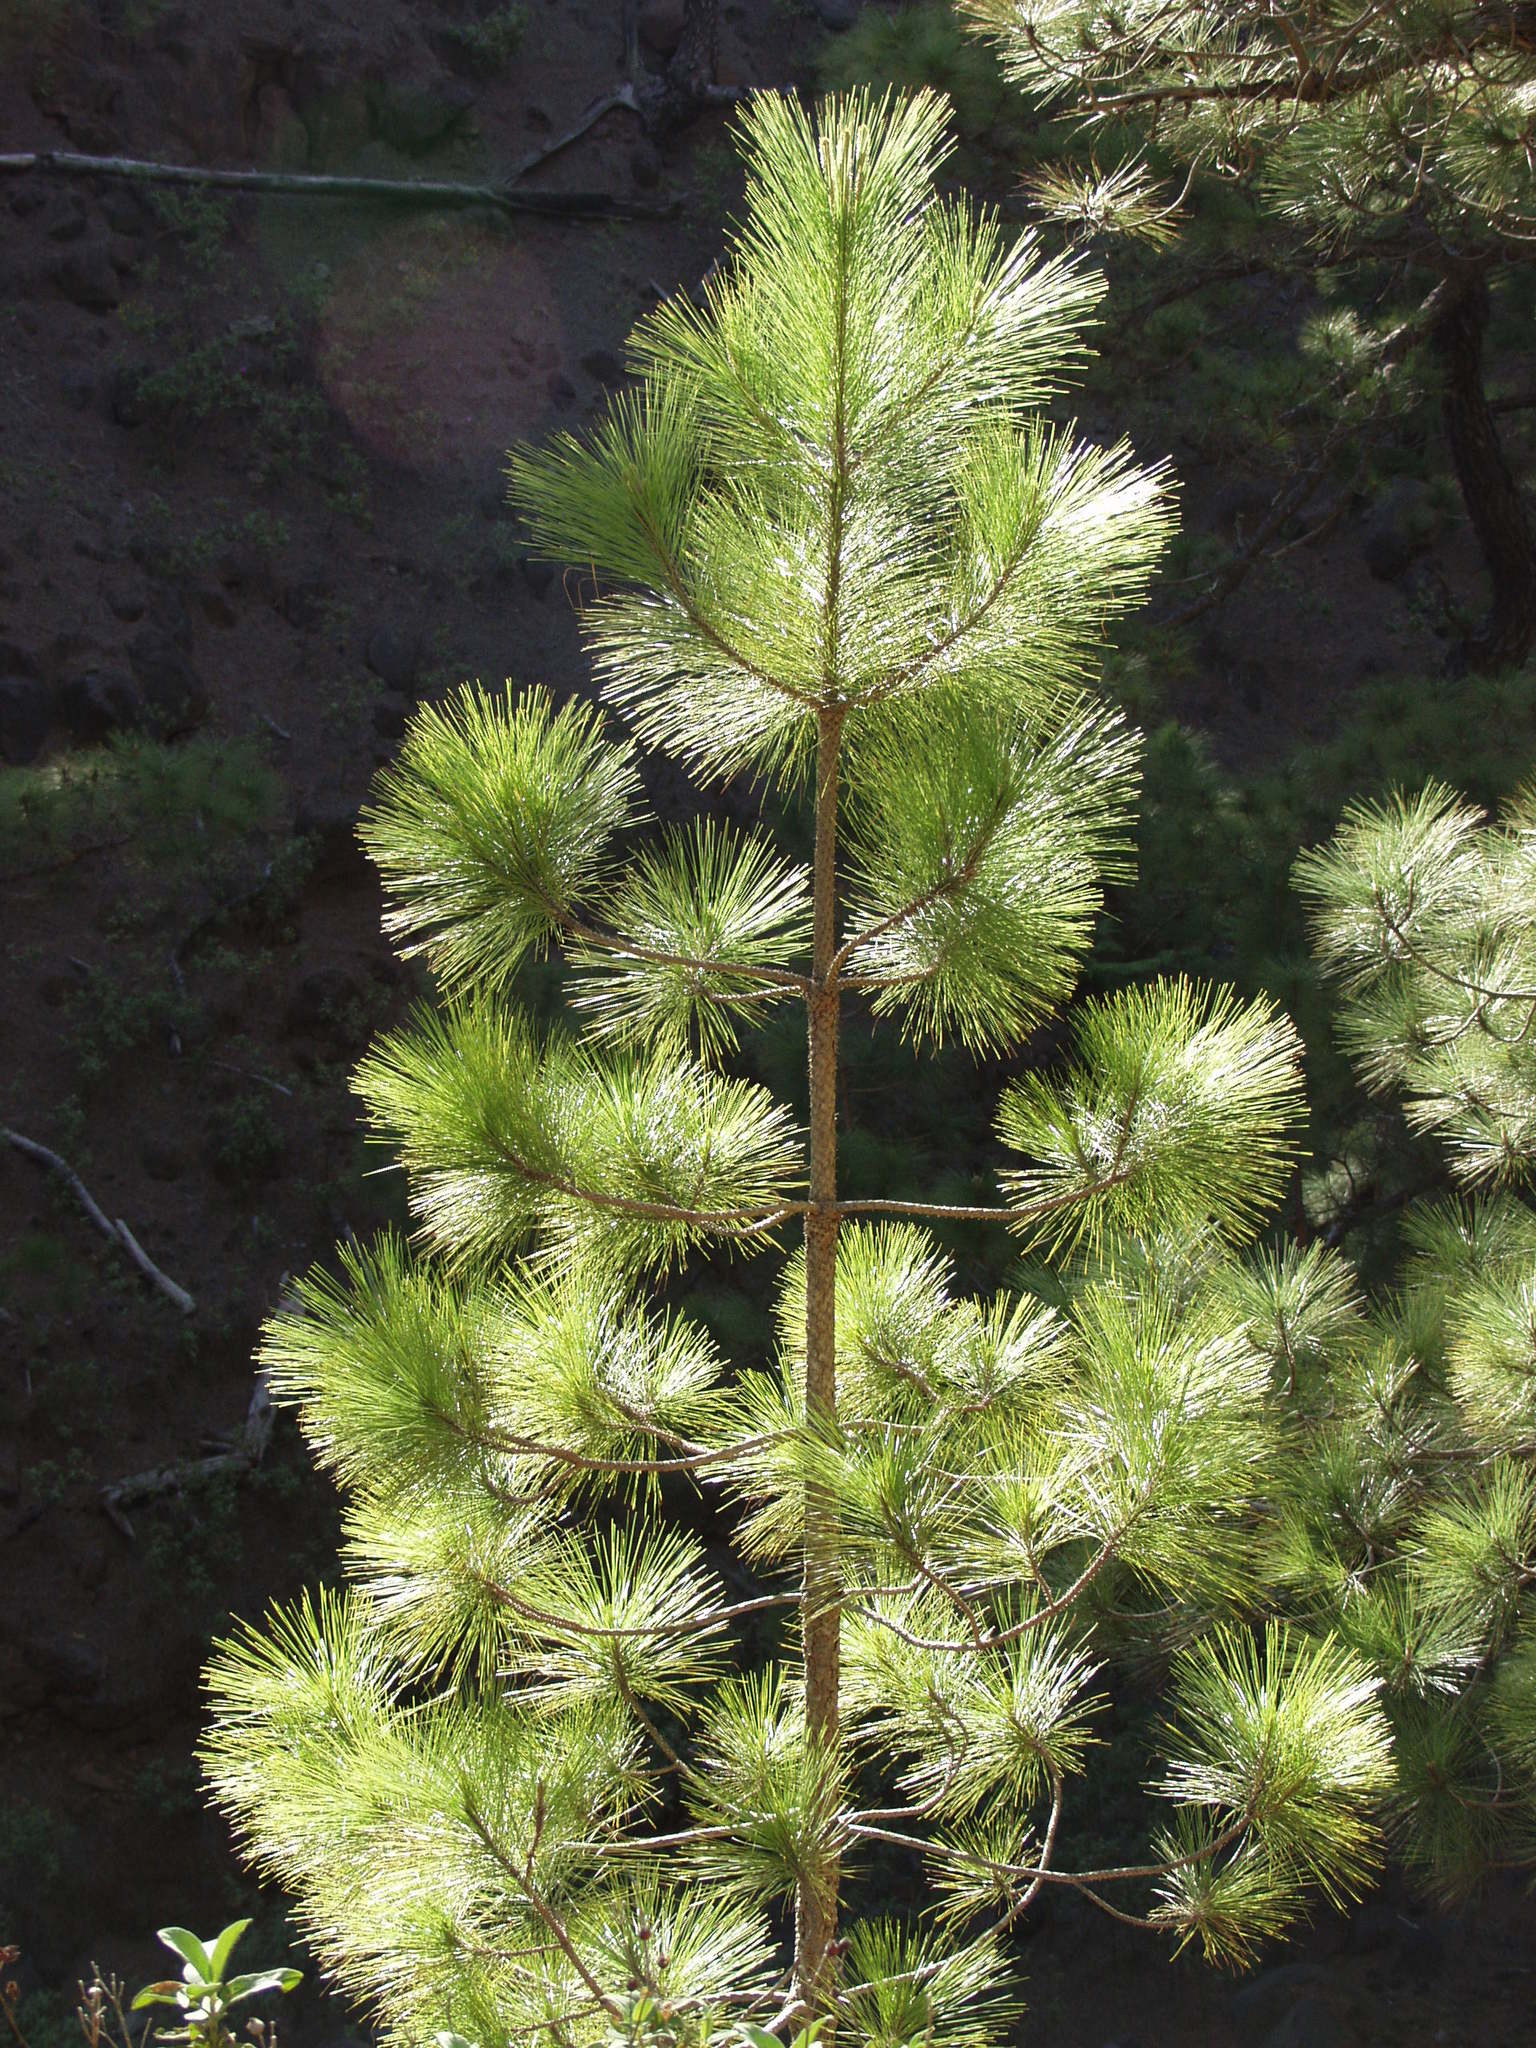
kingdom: Plantae
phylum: Tracheophyta
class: Pinopsida
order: Pinales
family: Pinaceae
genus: Pinus
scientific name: Pinus canariensis
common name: Canary islands pine
